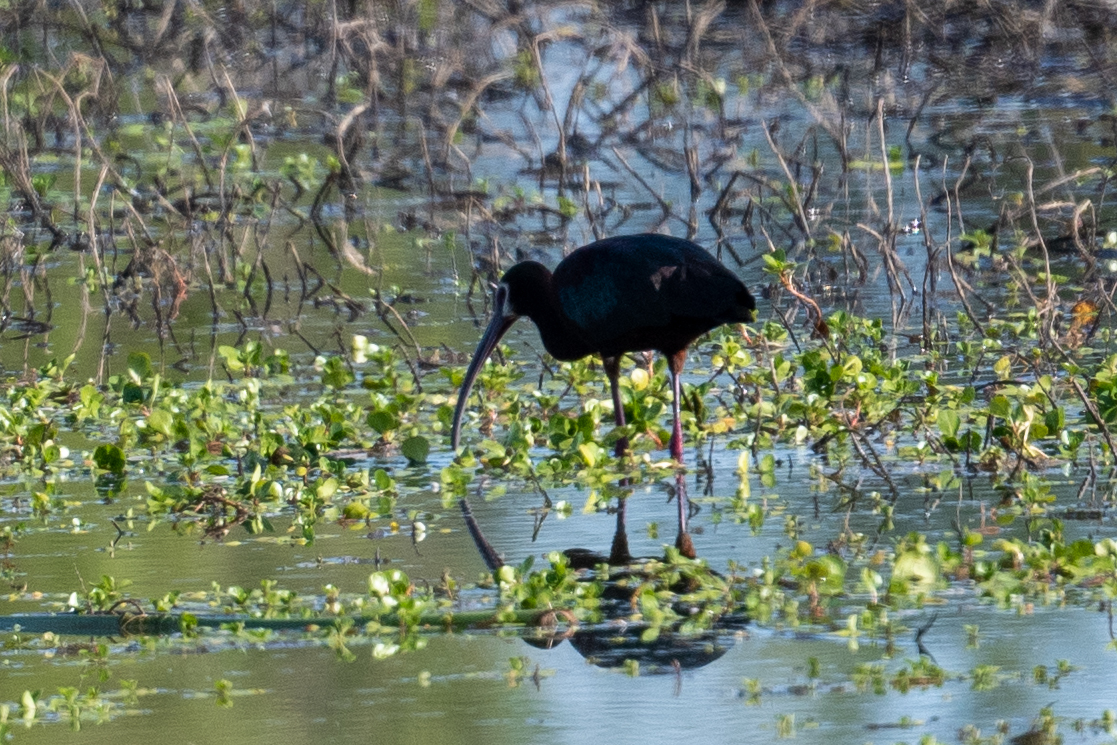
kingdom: Animalia
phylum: Chordata
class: Aves
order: Pelecaniformes
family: Threskiornithidae
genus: Plegadis
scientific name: Plegadis chihi
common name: White-faced ibis
